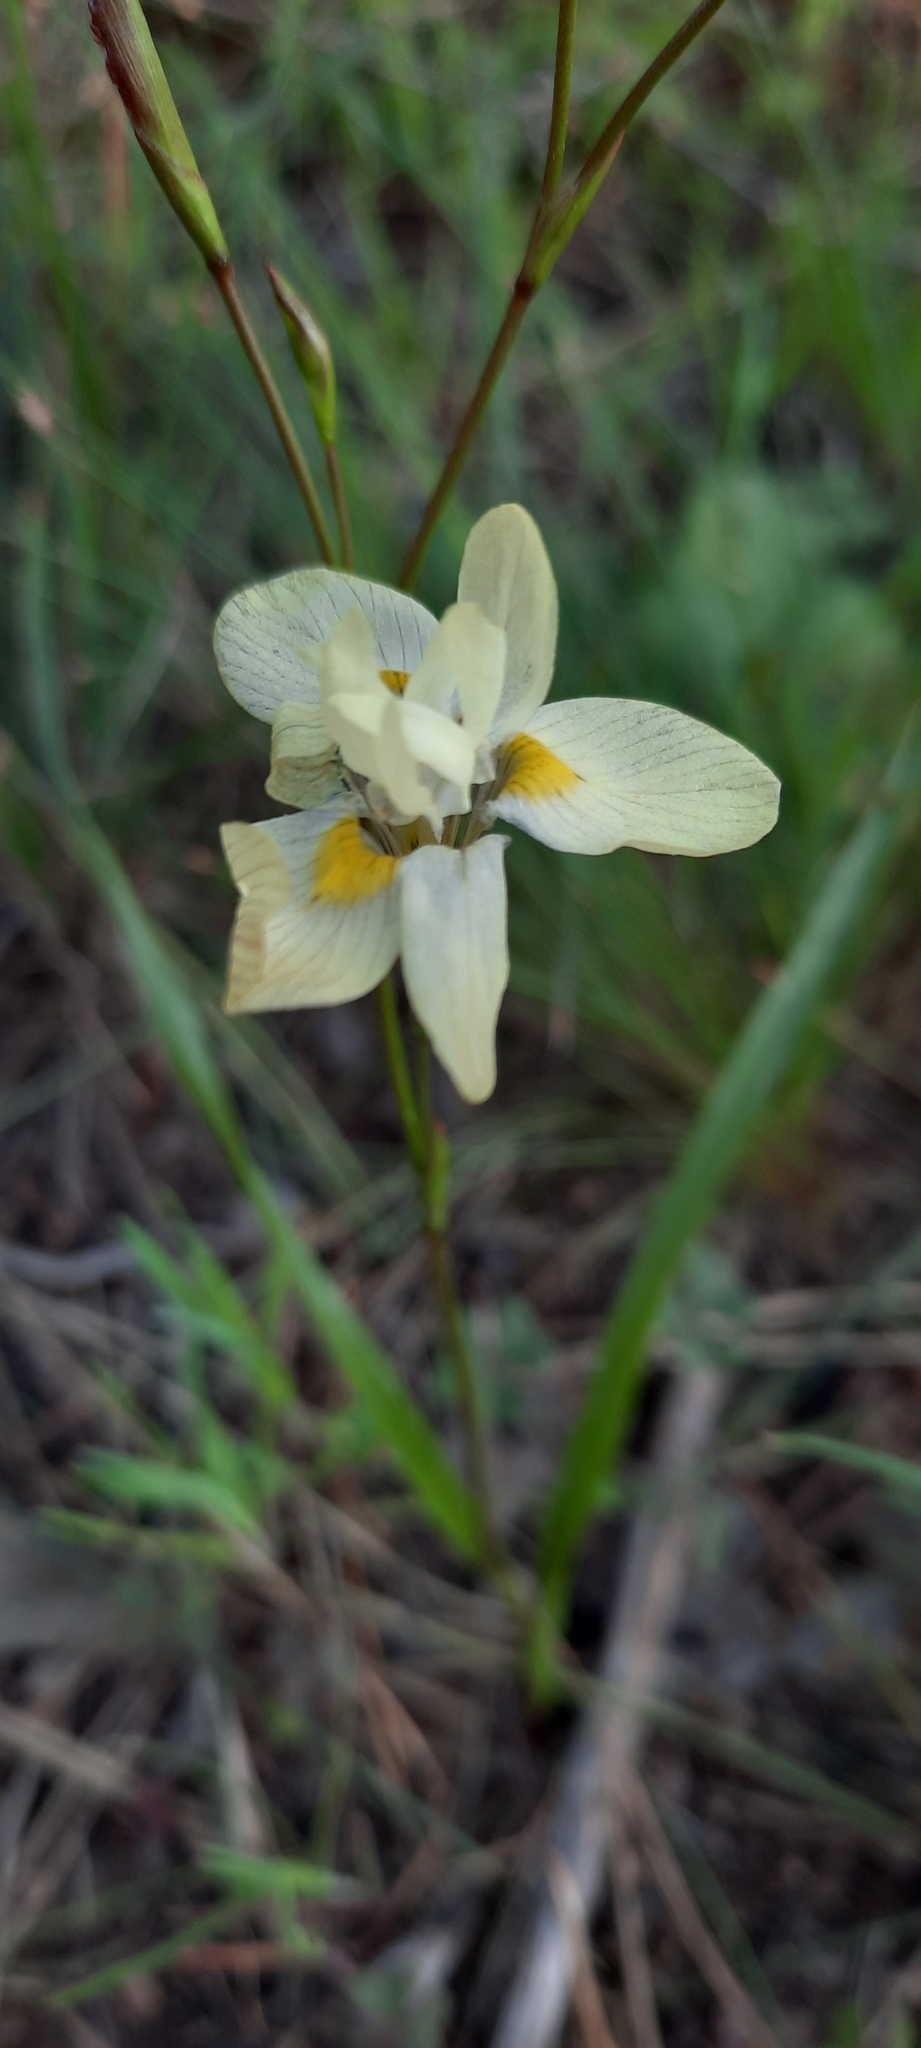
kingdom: Plantae
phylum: Tracheophyta
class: Liliopsida
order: Asparagales
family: Iridaceae
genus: Moraea
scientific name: Moraea gawleri
